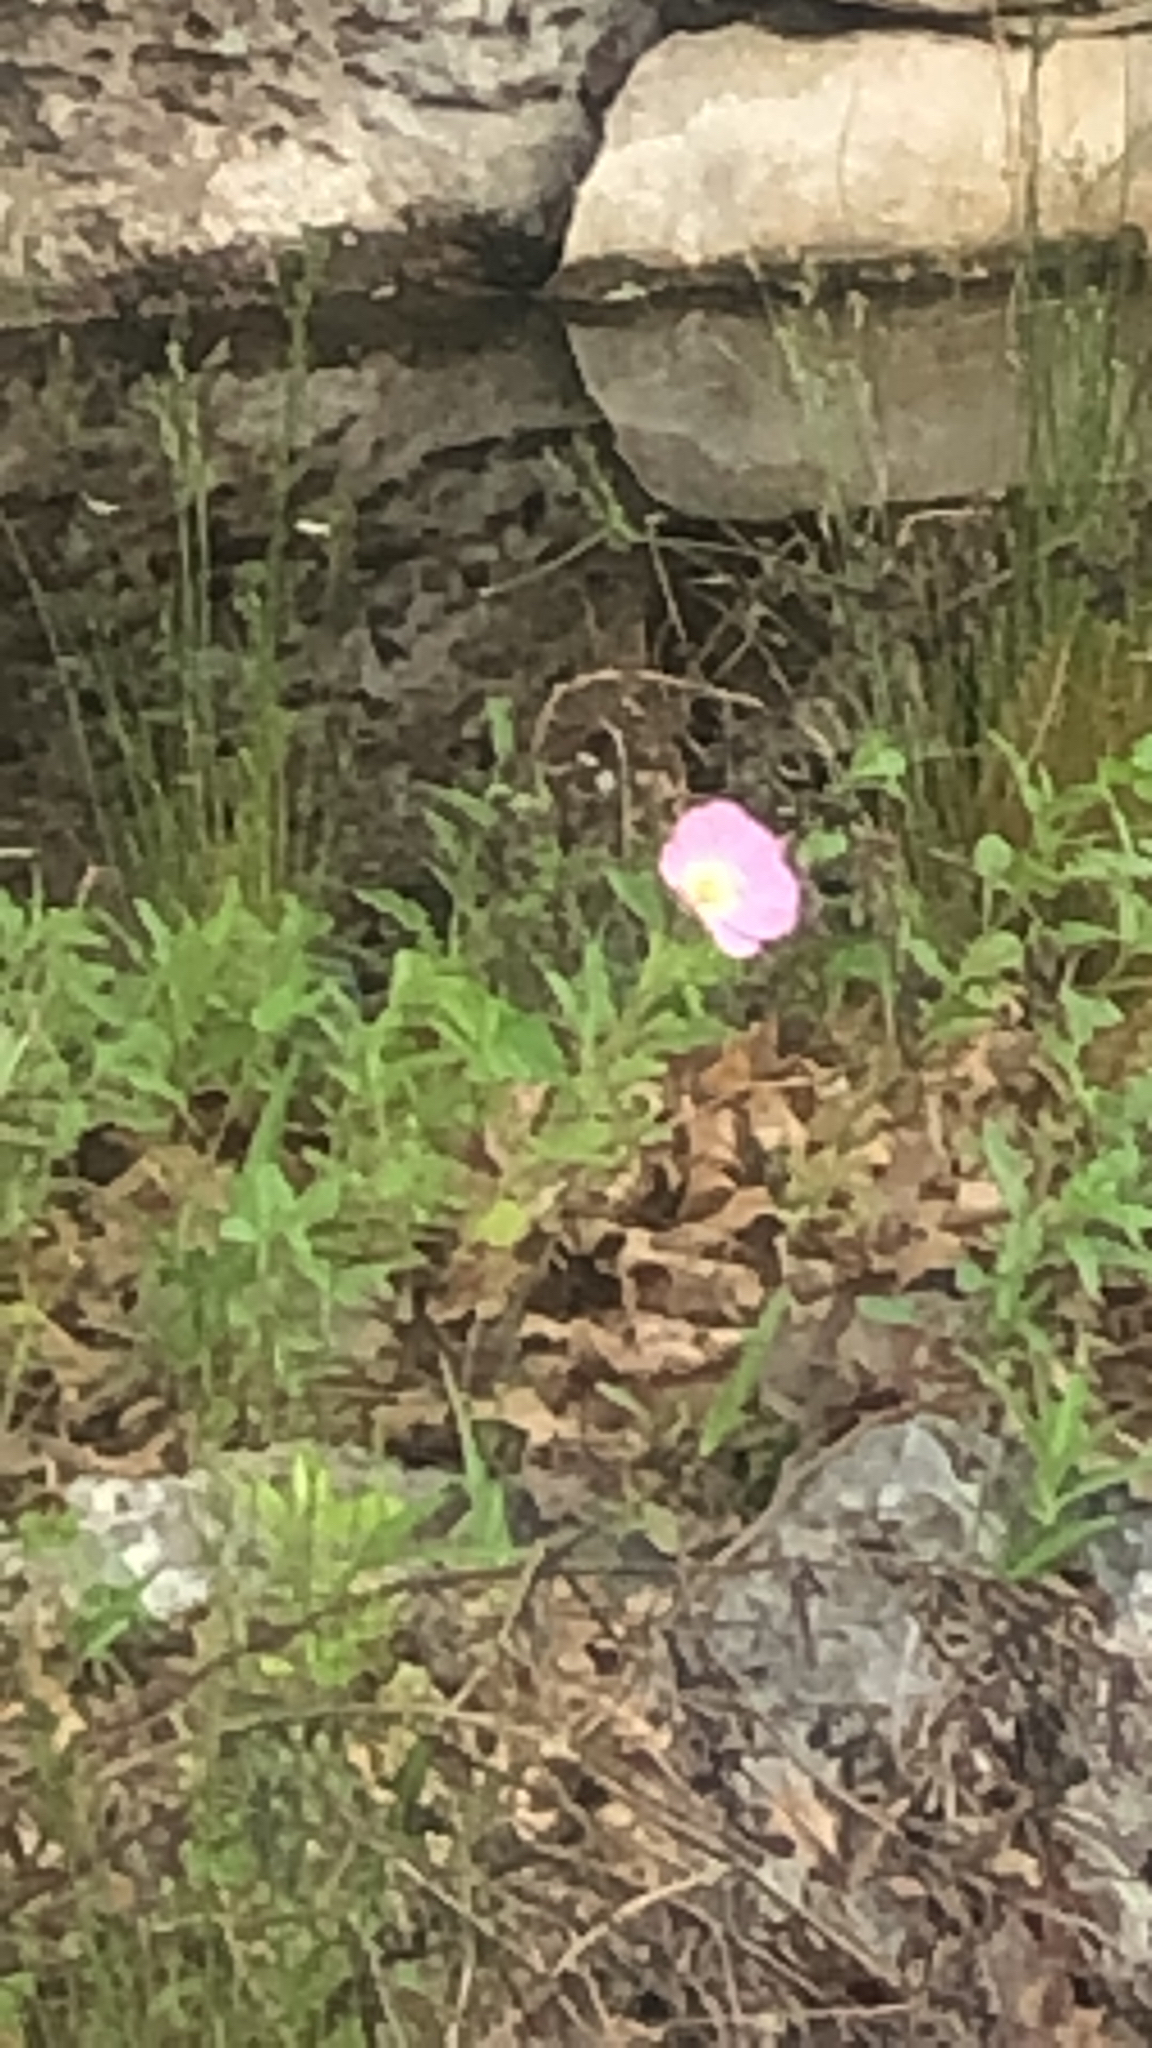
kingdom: Plantae
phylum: Tracheophyta
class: Magnoliopsida
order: Myrtales
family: Onagraceae
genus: Oenothera
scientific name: Oenothera speciosa
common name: White evening-primrose
